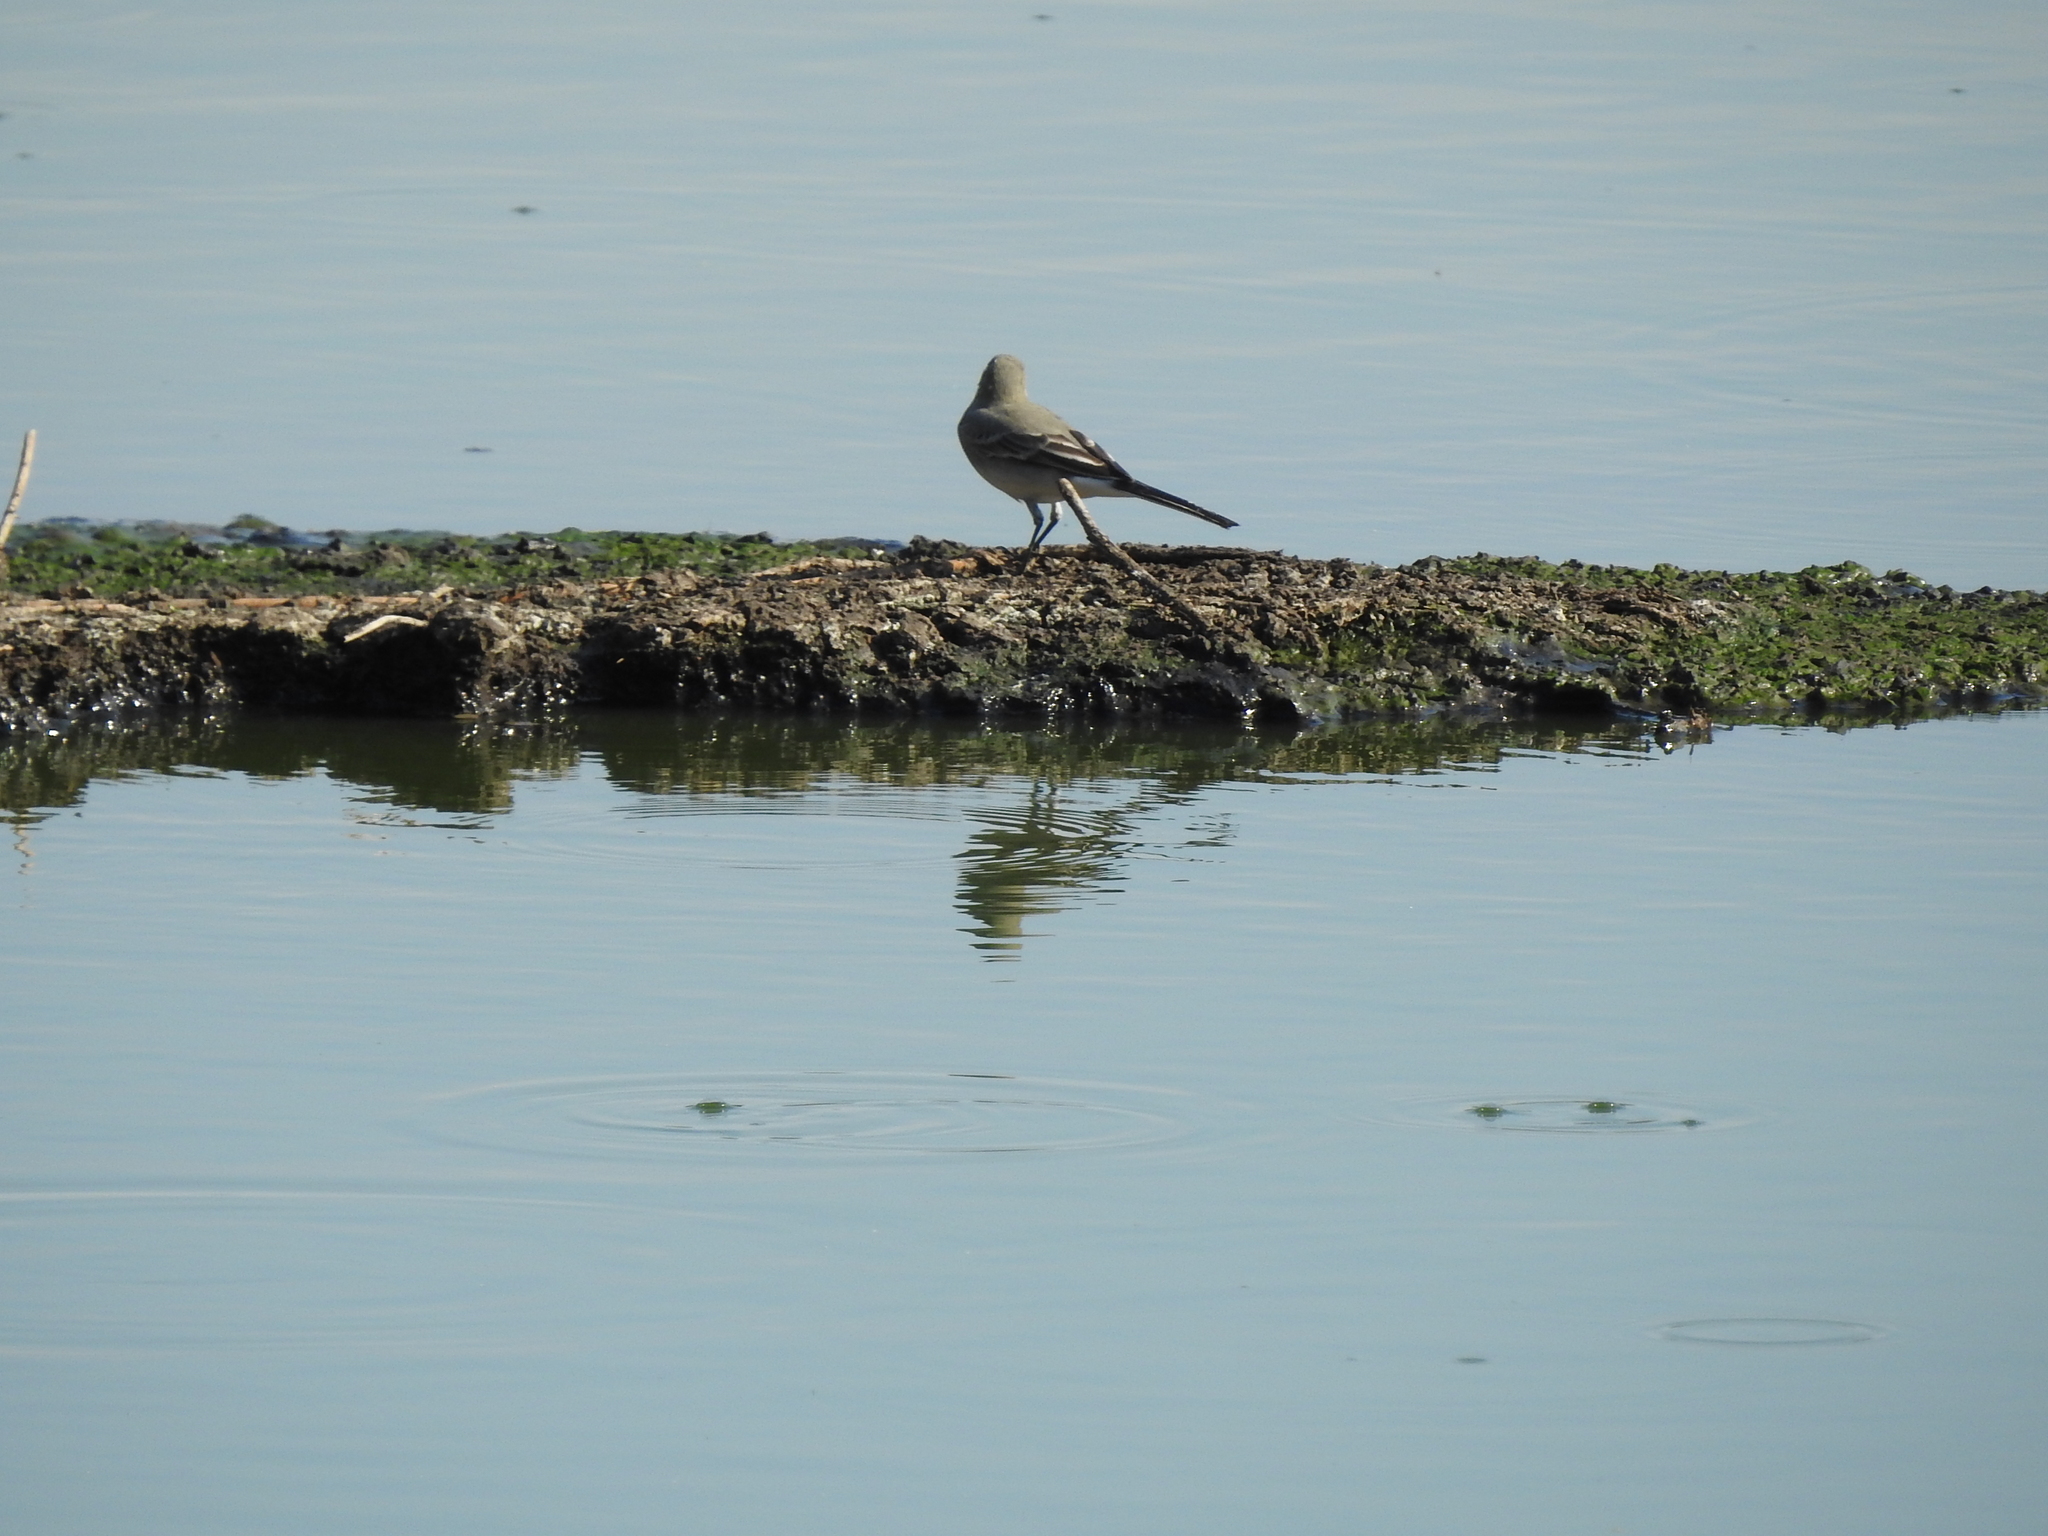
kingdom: Animalia
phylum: Chordata
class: Aves
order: Passeriformes
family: Motacillidae
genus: Motacilla
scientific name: Motacilla alba
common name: White wagtail
